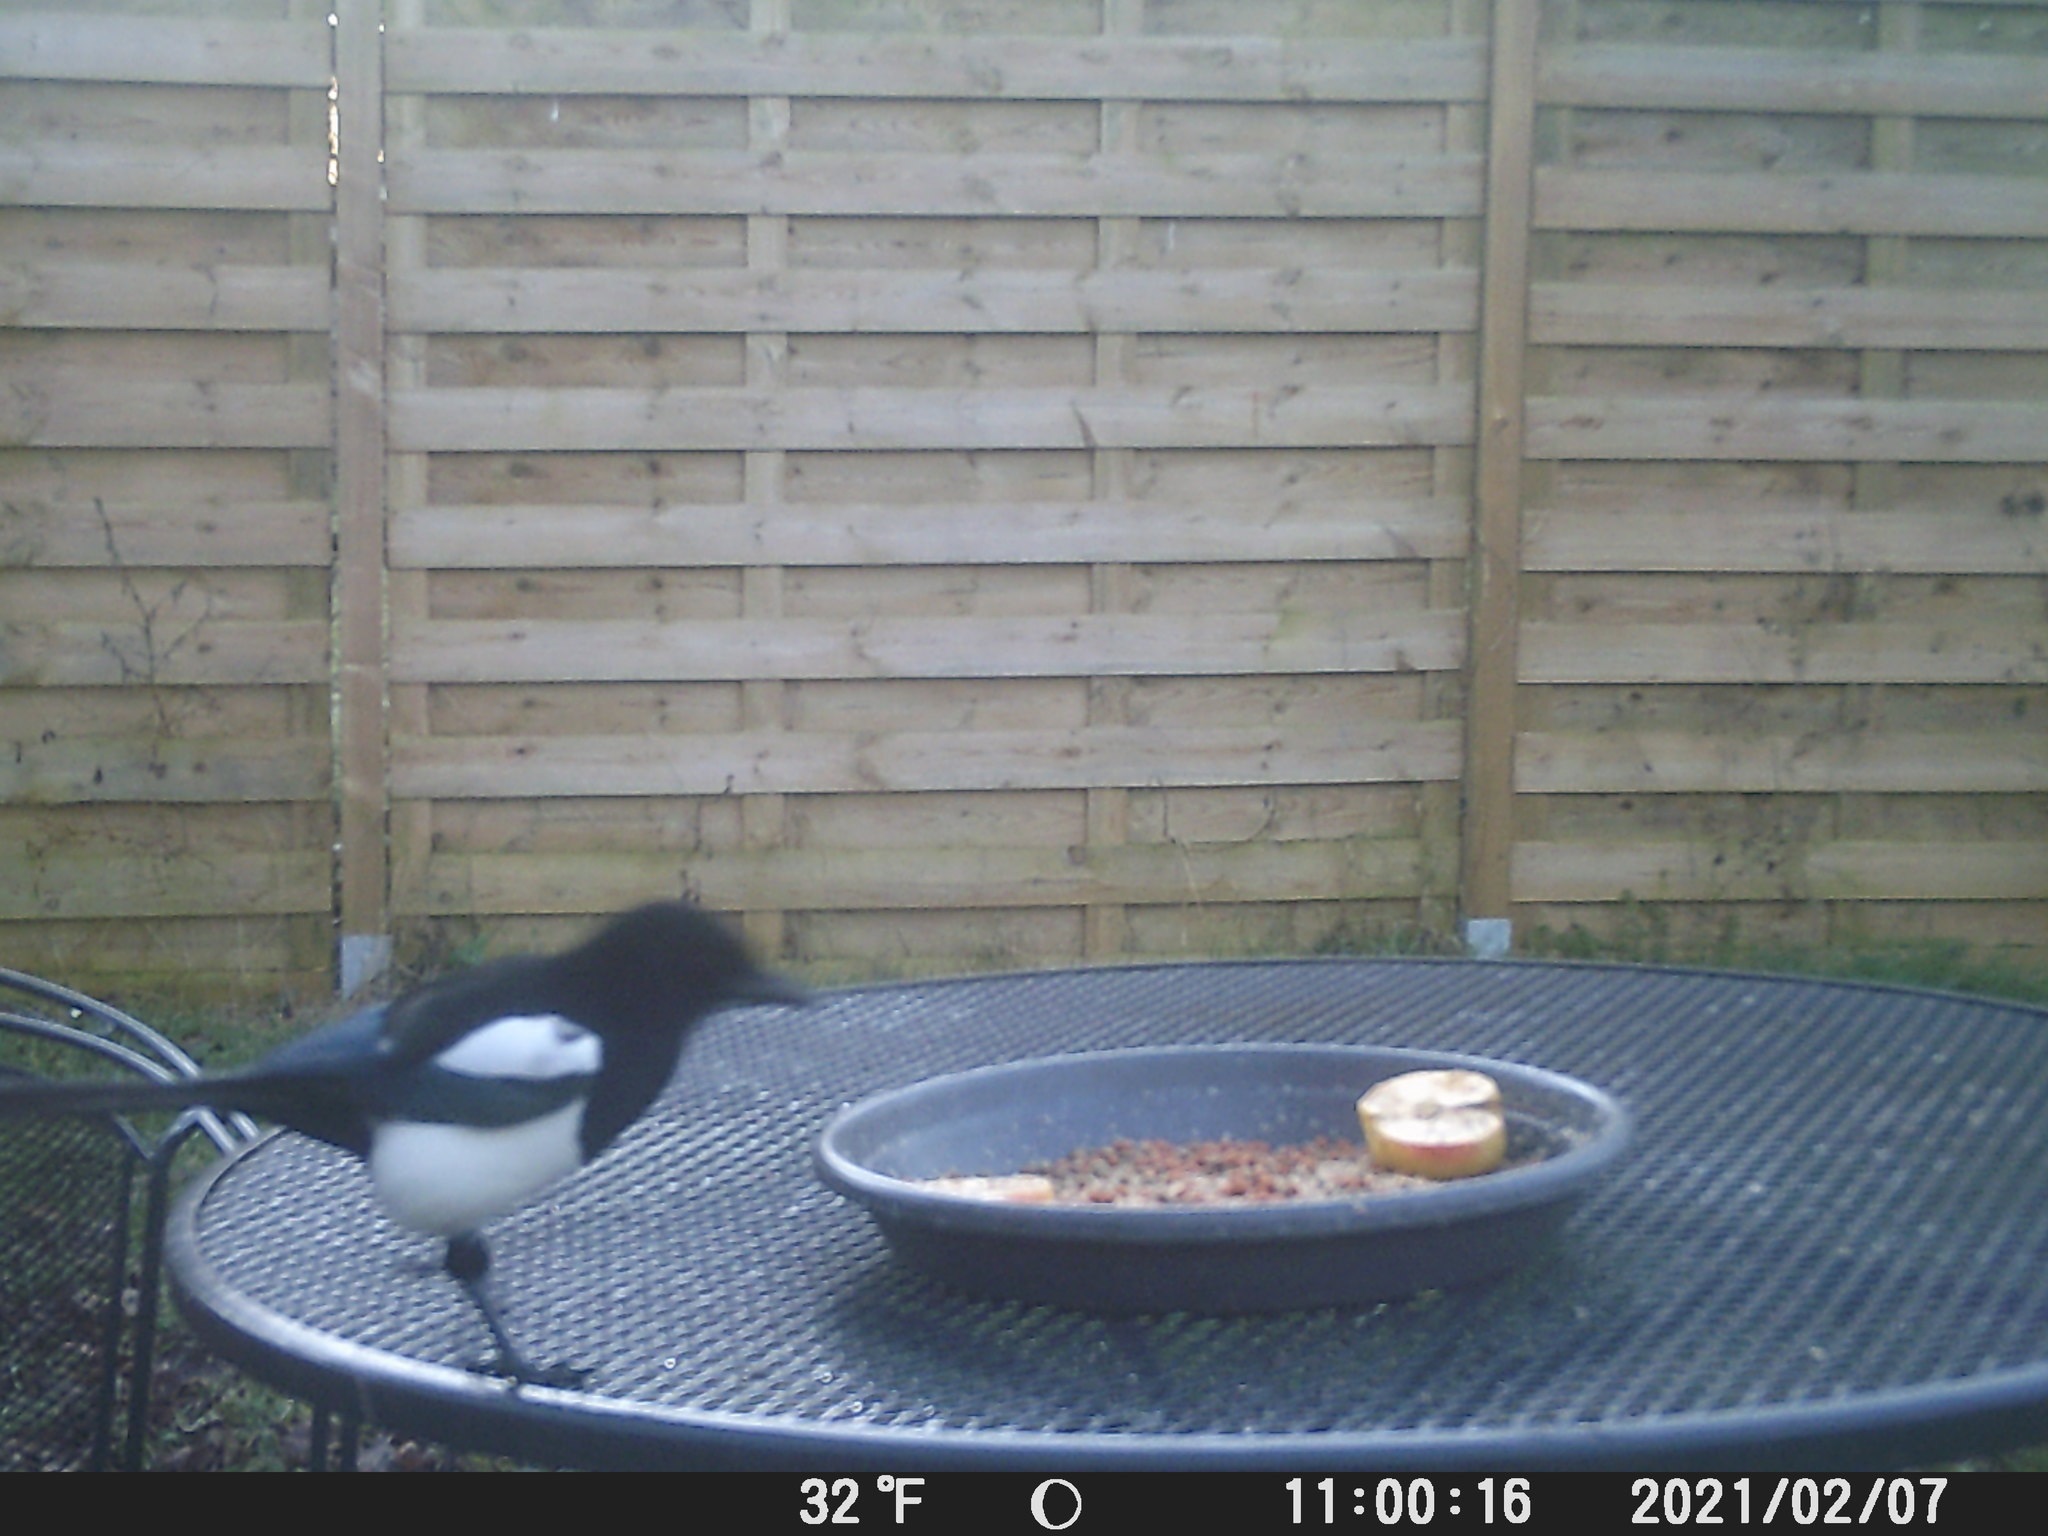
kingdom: Animalia
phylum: Chordata
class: Aves
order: Passeriformes
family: Corvidae
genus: Pica
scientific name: Pica pica
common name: Eurasian magpie
